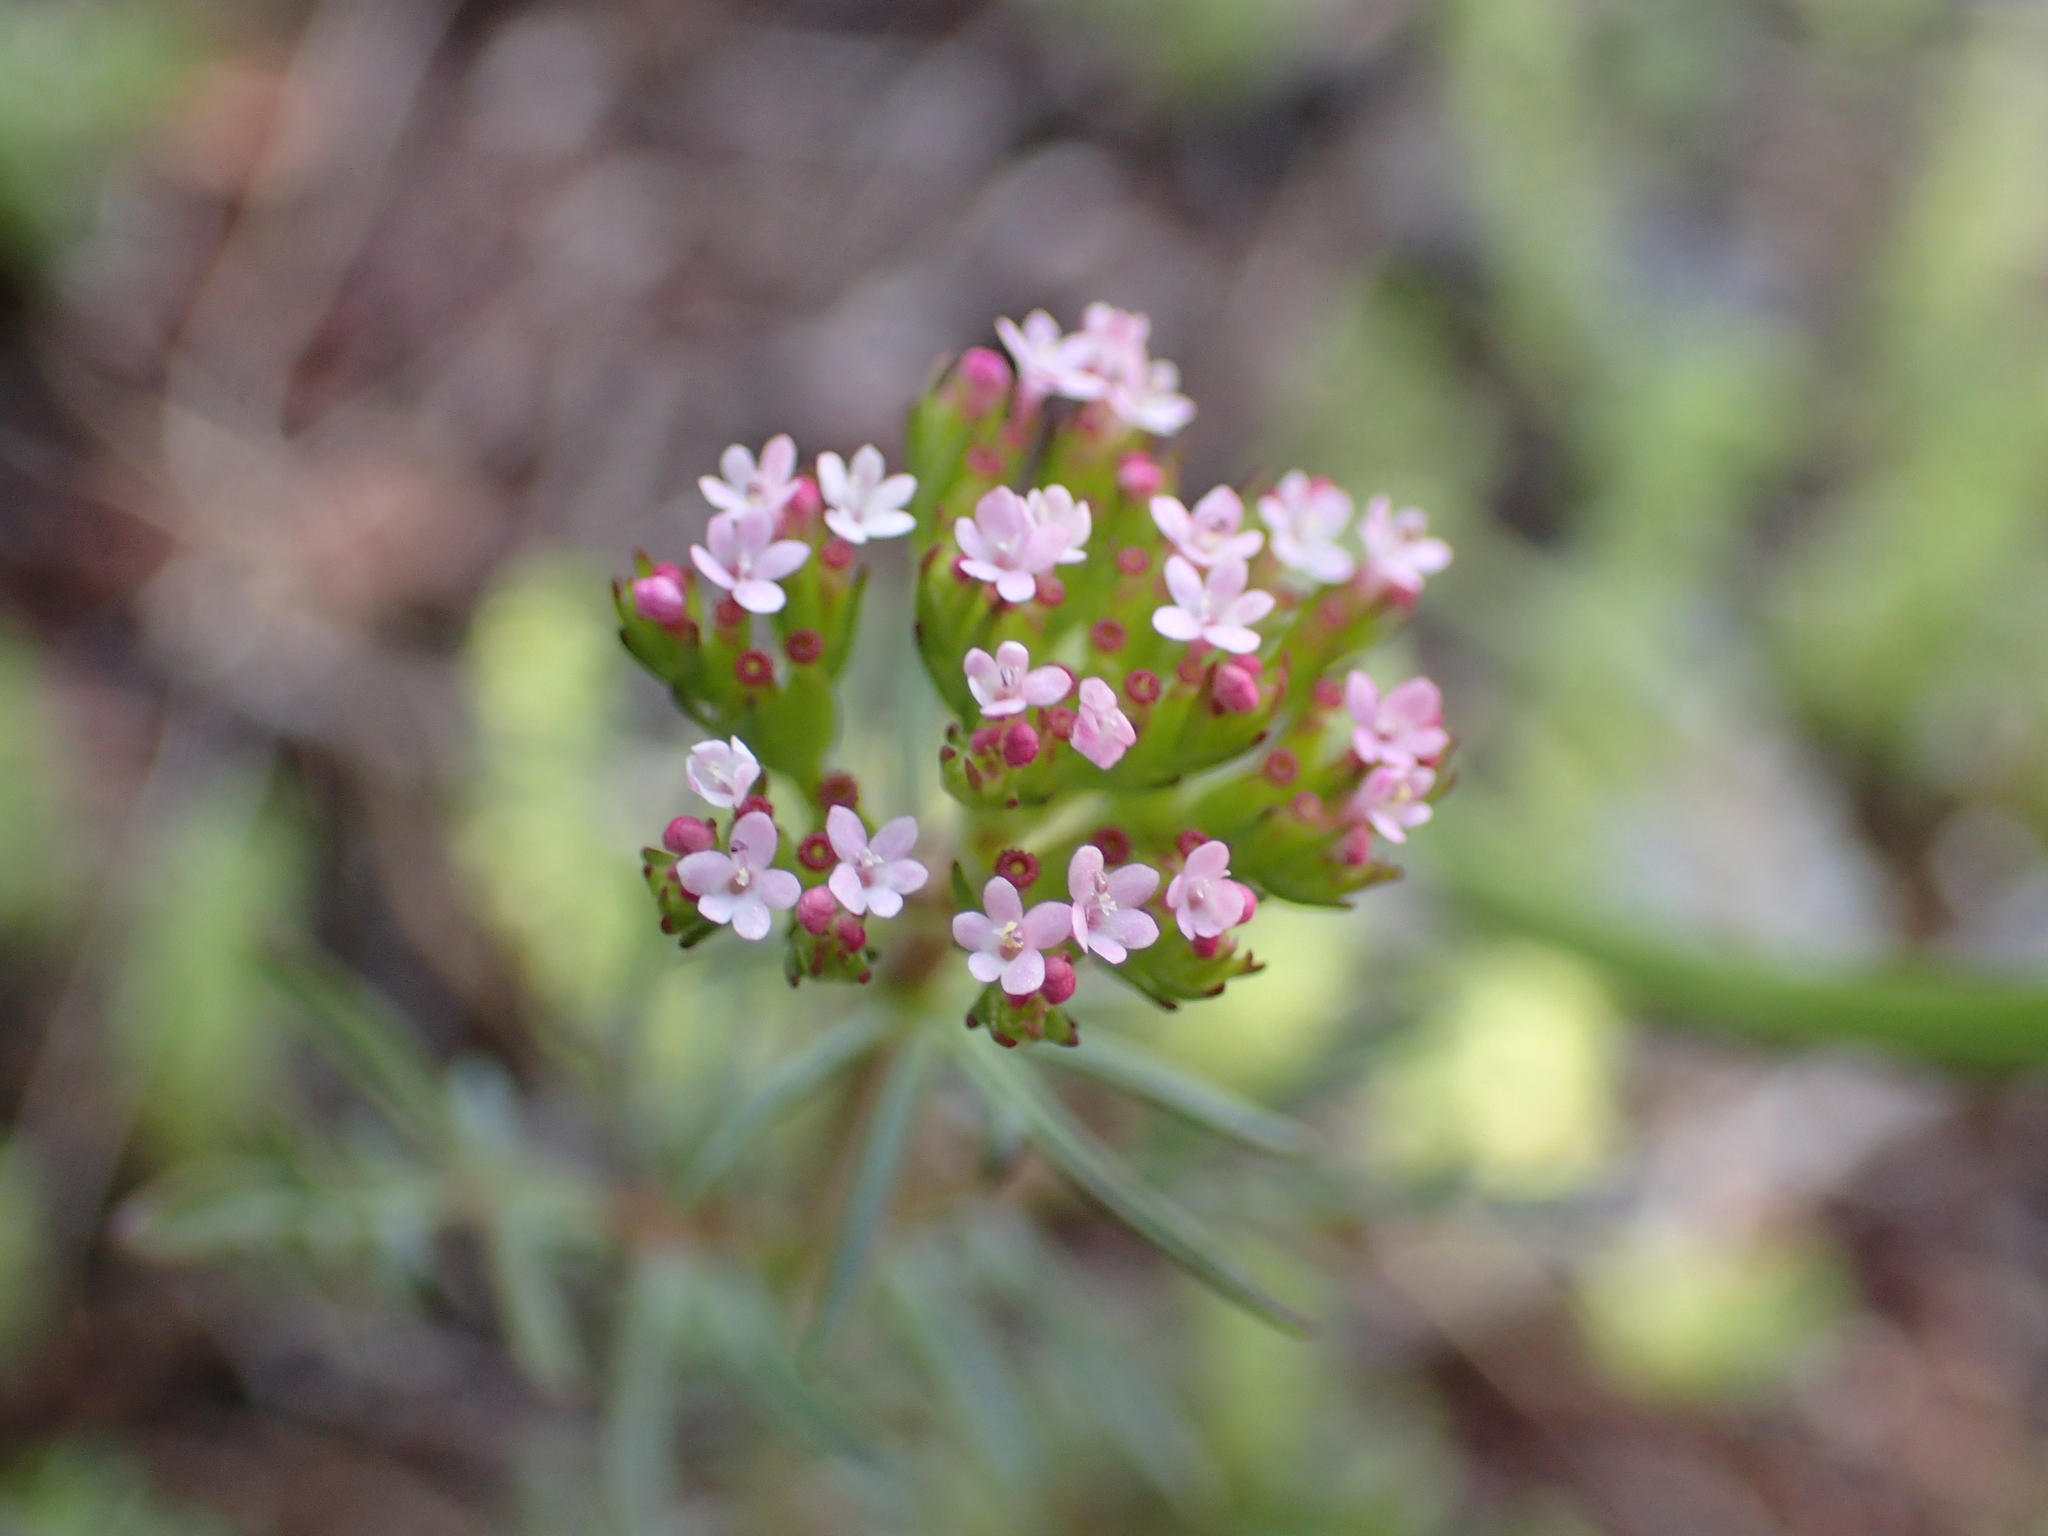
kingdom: Plantae
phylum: Tracheophyta
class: Magnoliopsida
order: Dipsacales
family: Caprifoliaceae
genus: Centranthus
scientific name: Centranthus calcitrapae
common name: Annual valerian
